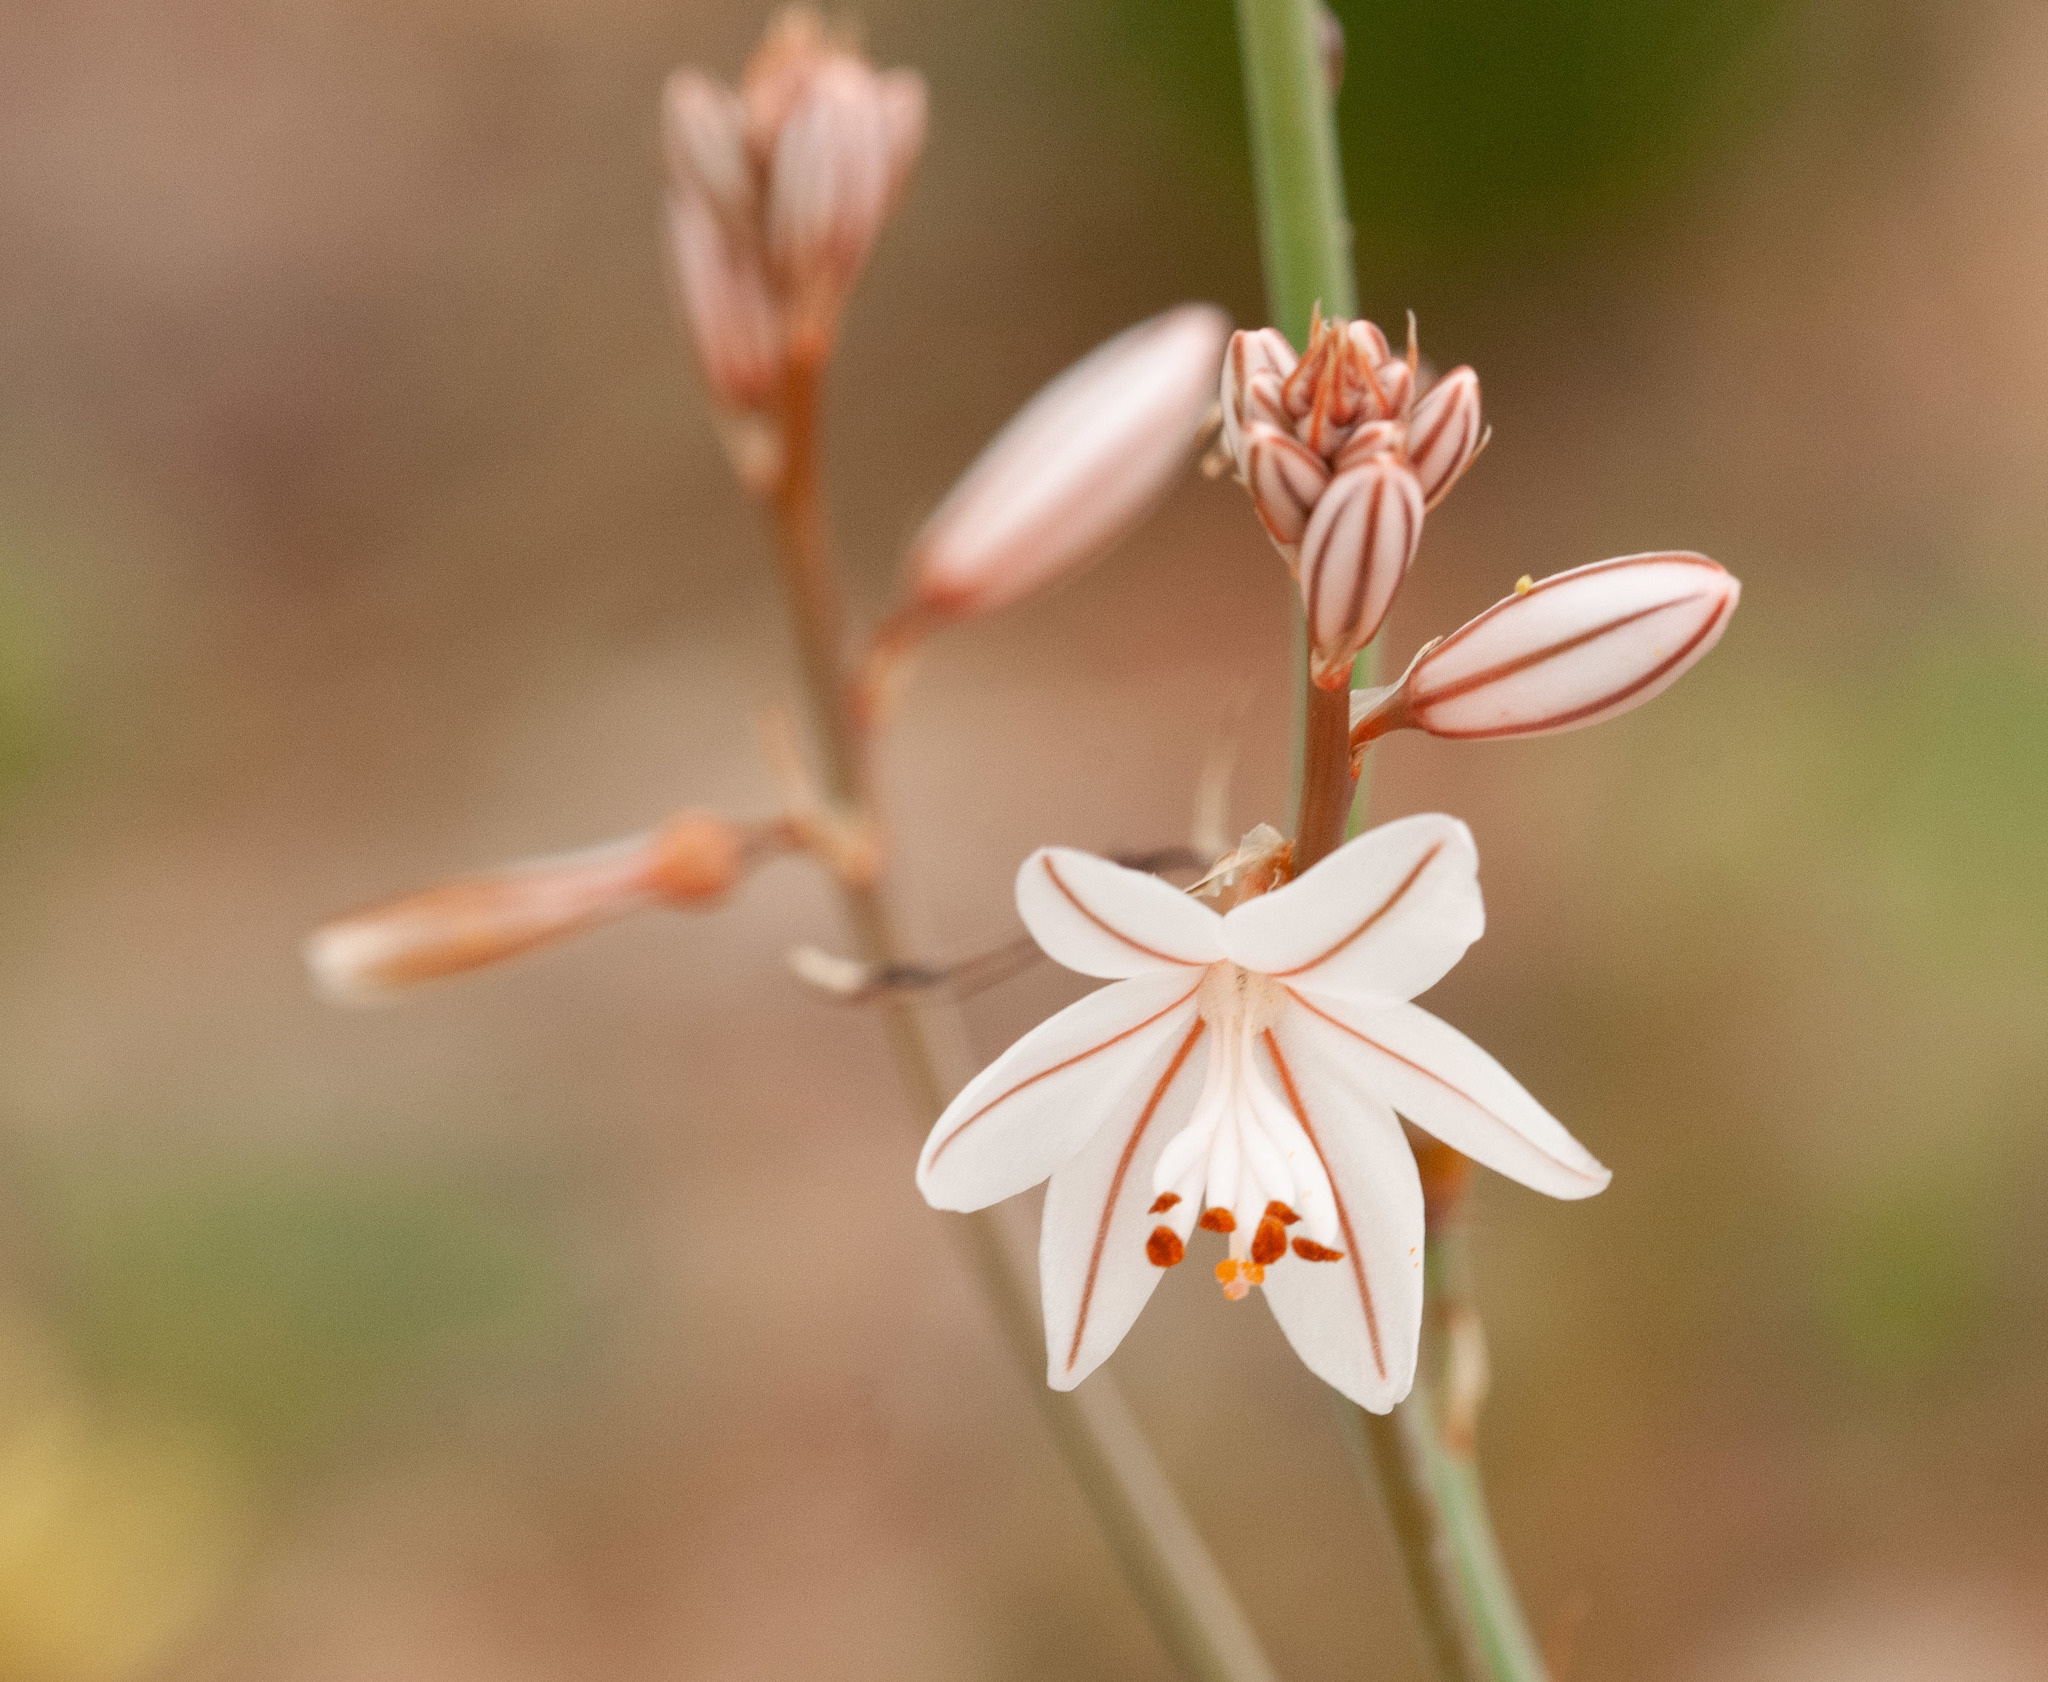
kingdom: Plantae
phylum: Tracheophyta
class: Liliopsida
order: Asparagales
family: Asphodelaceae
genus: Asphodelus
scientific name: Asphodelus fistulosus
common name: Onionweed
